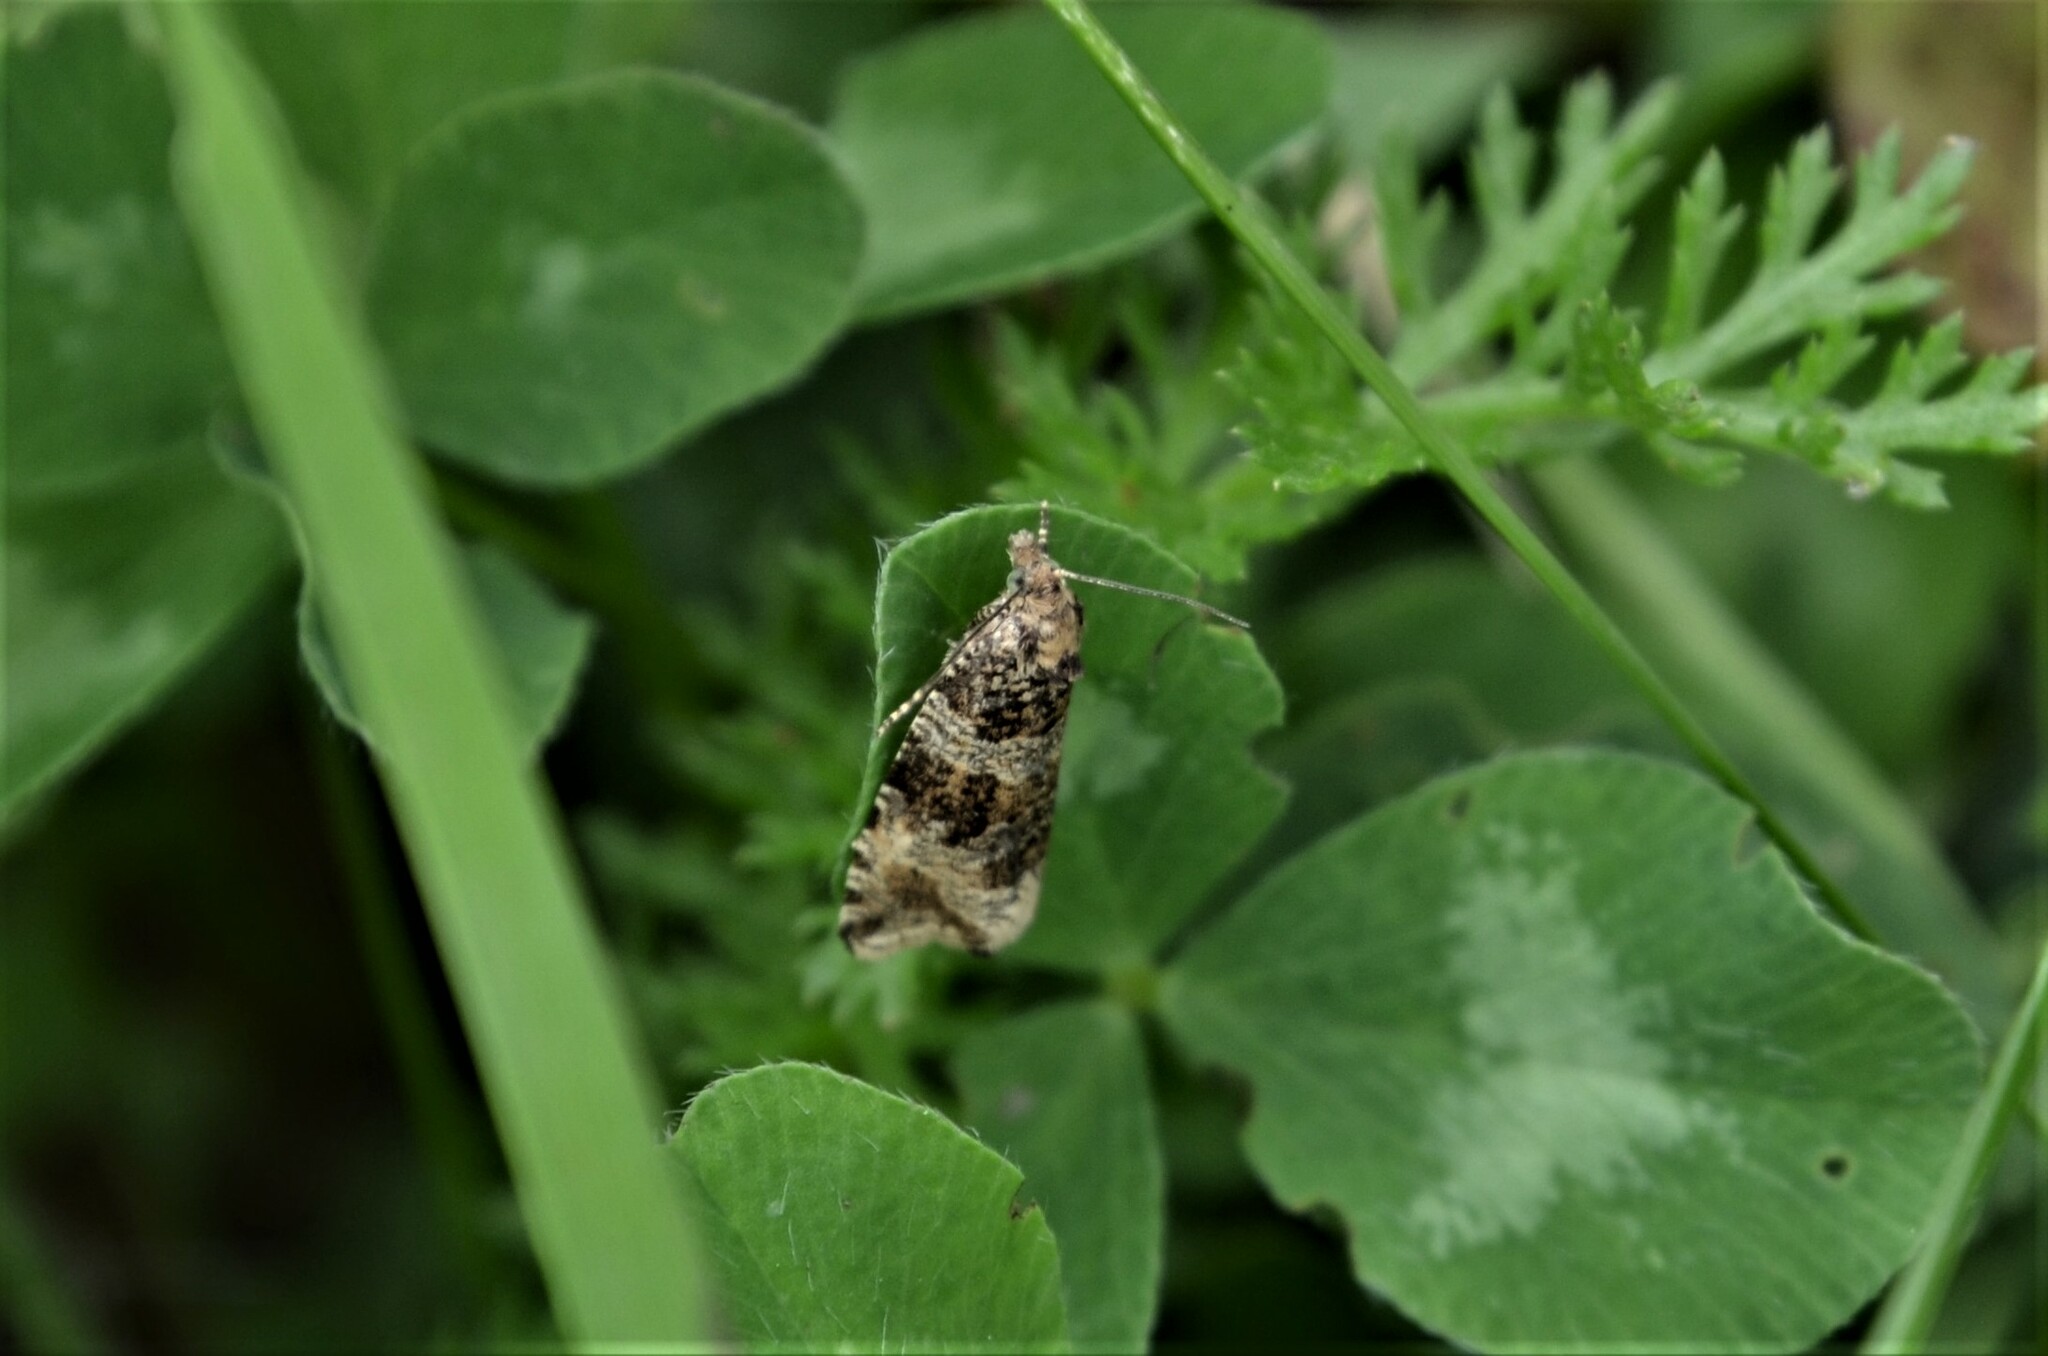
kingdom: Animalia
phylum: Arthropoda
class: Insecta
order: Lepidoptera
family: Tortricidae
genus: Orthotaenia
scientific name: Orthotaenia undulana
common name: Woodland marble
